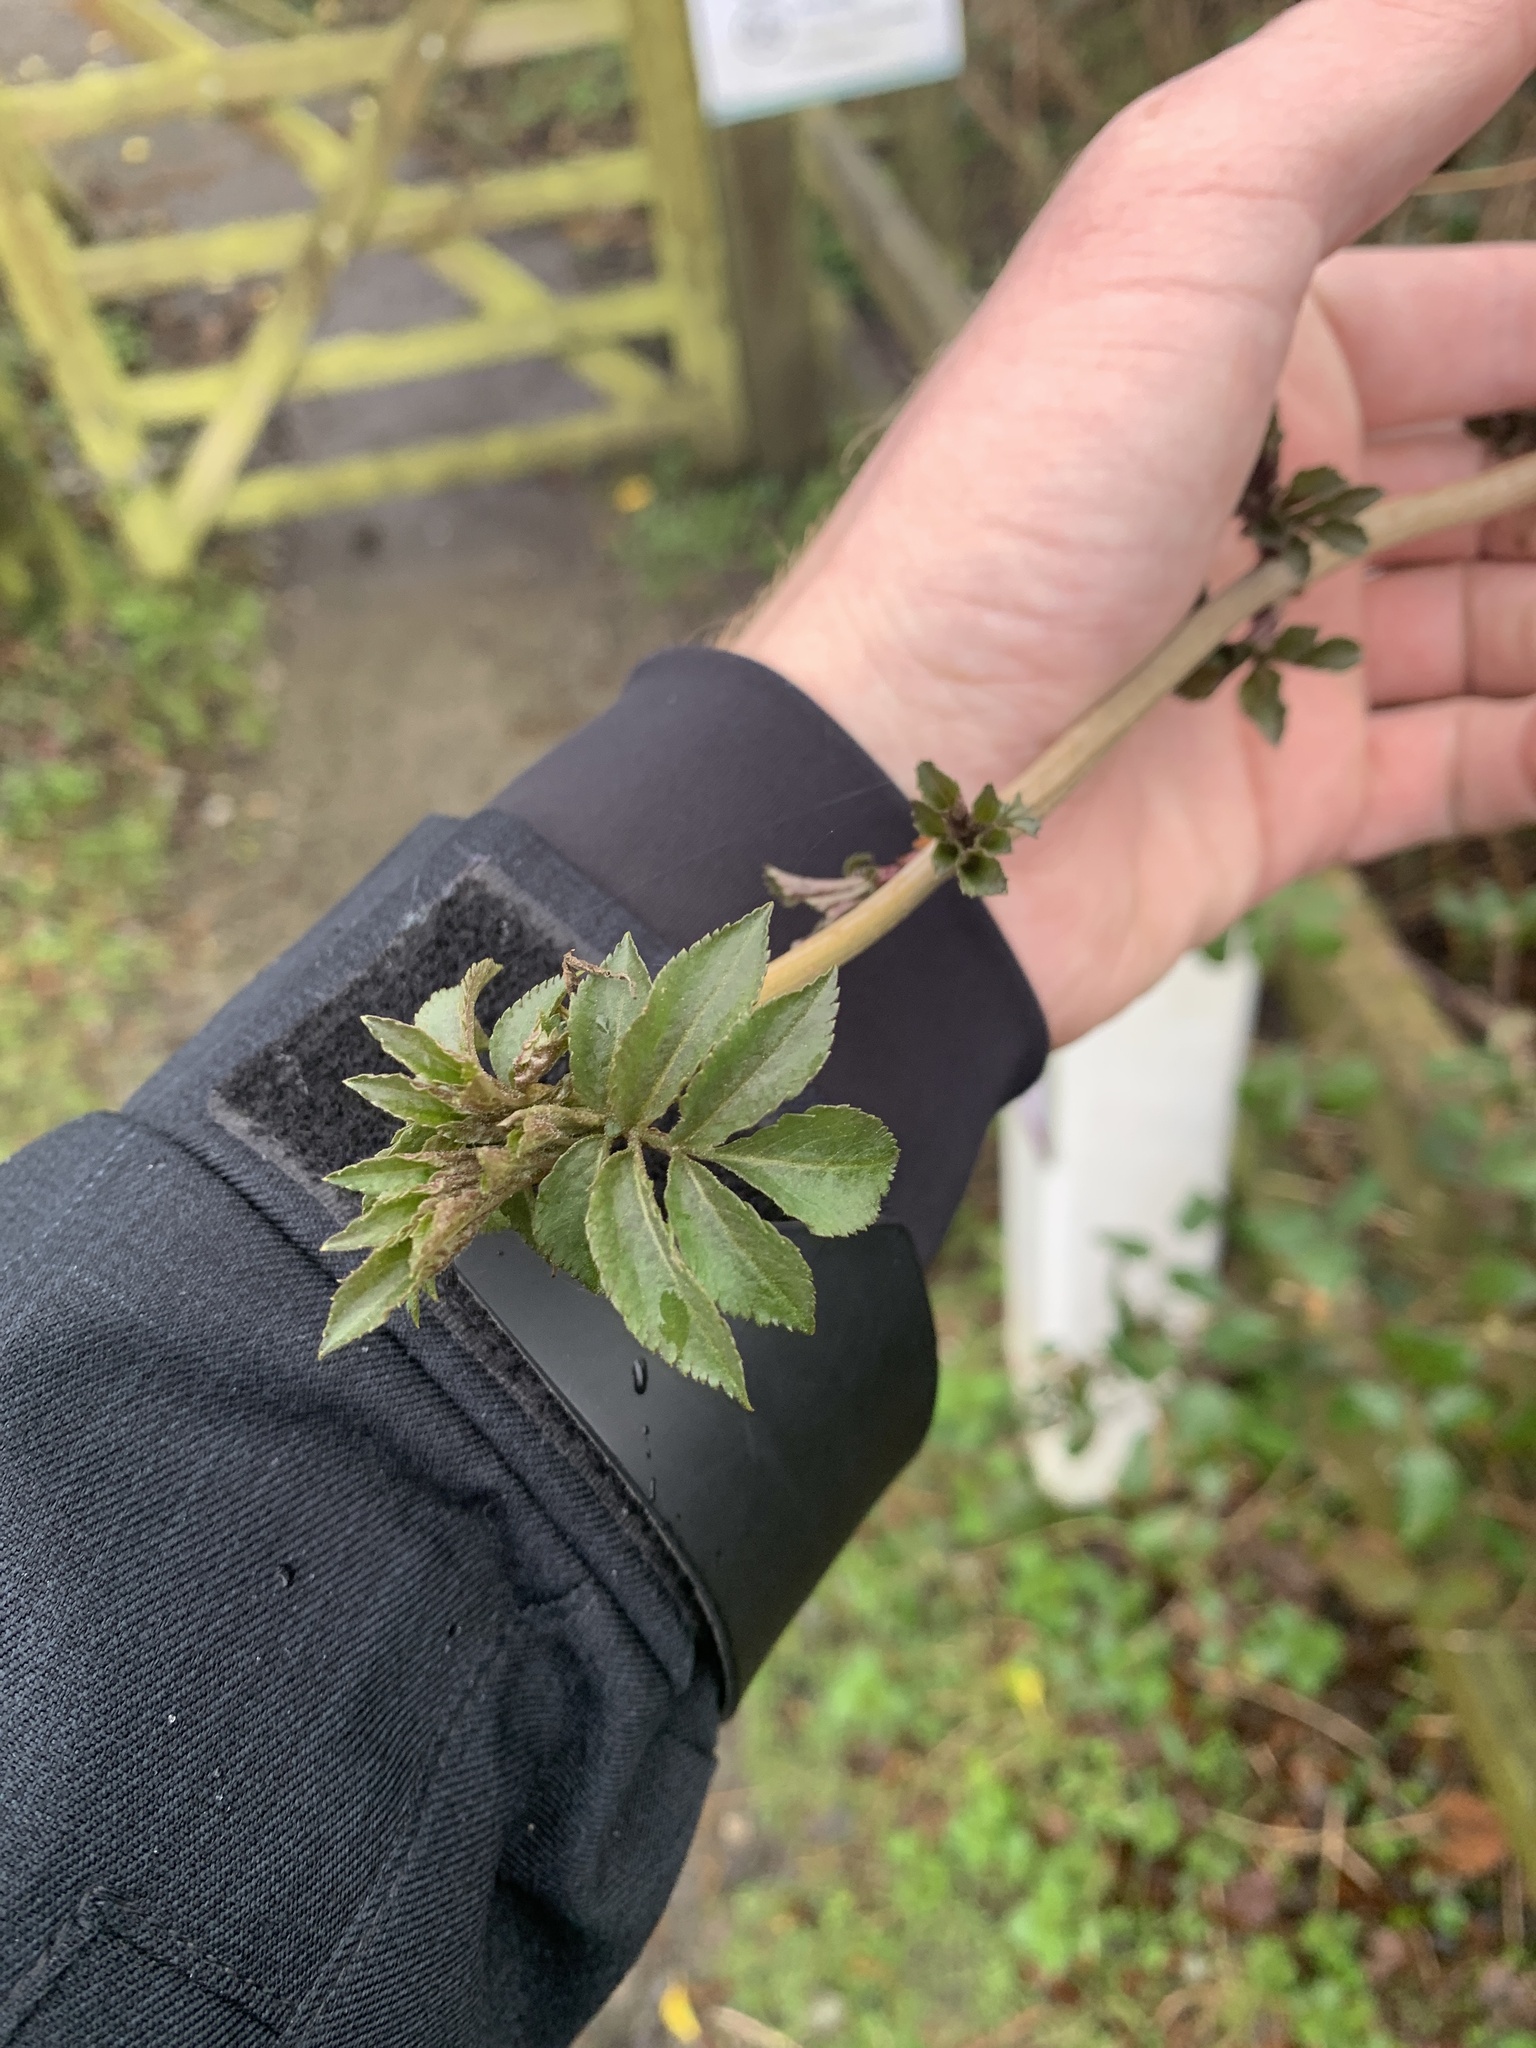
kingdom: Plantae
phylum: Tracheophyta
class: Magnoliopsida
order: Dipsacales
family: Viburnaceae
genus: Sambucus
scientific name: Sambucus nigra
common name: Elder
